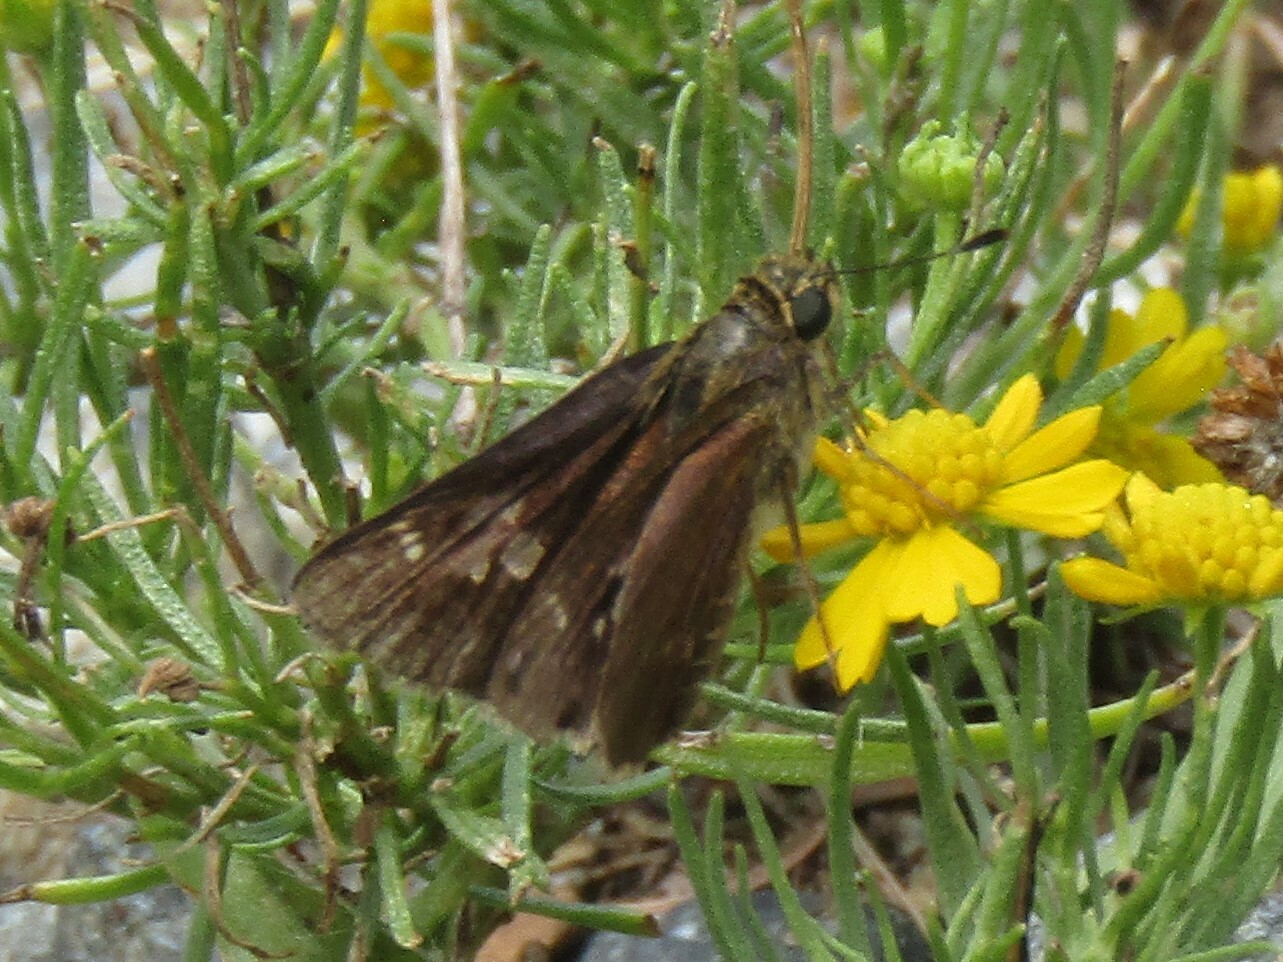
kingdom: Animalia
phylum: Arthropoda
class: Insecta
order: Lepidoptera
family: Hesperiidae
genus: Vernia
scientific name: Vernia verna
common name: Little glassywing
